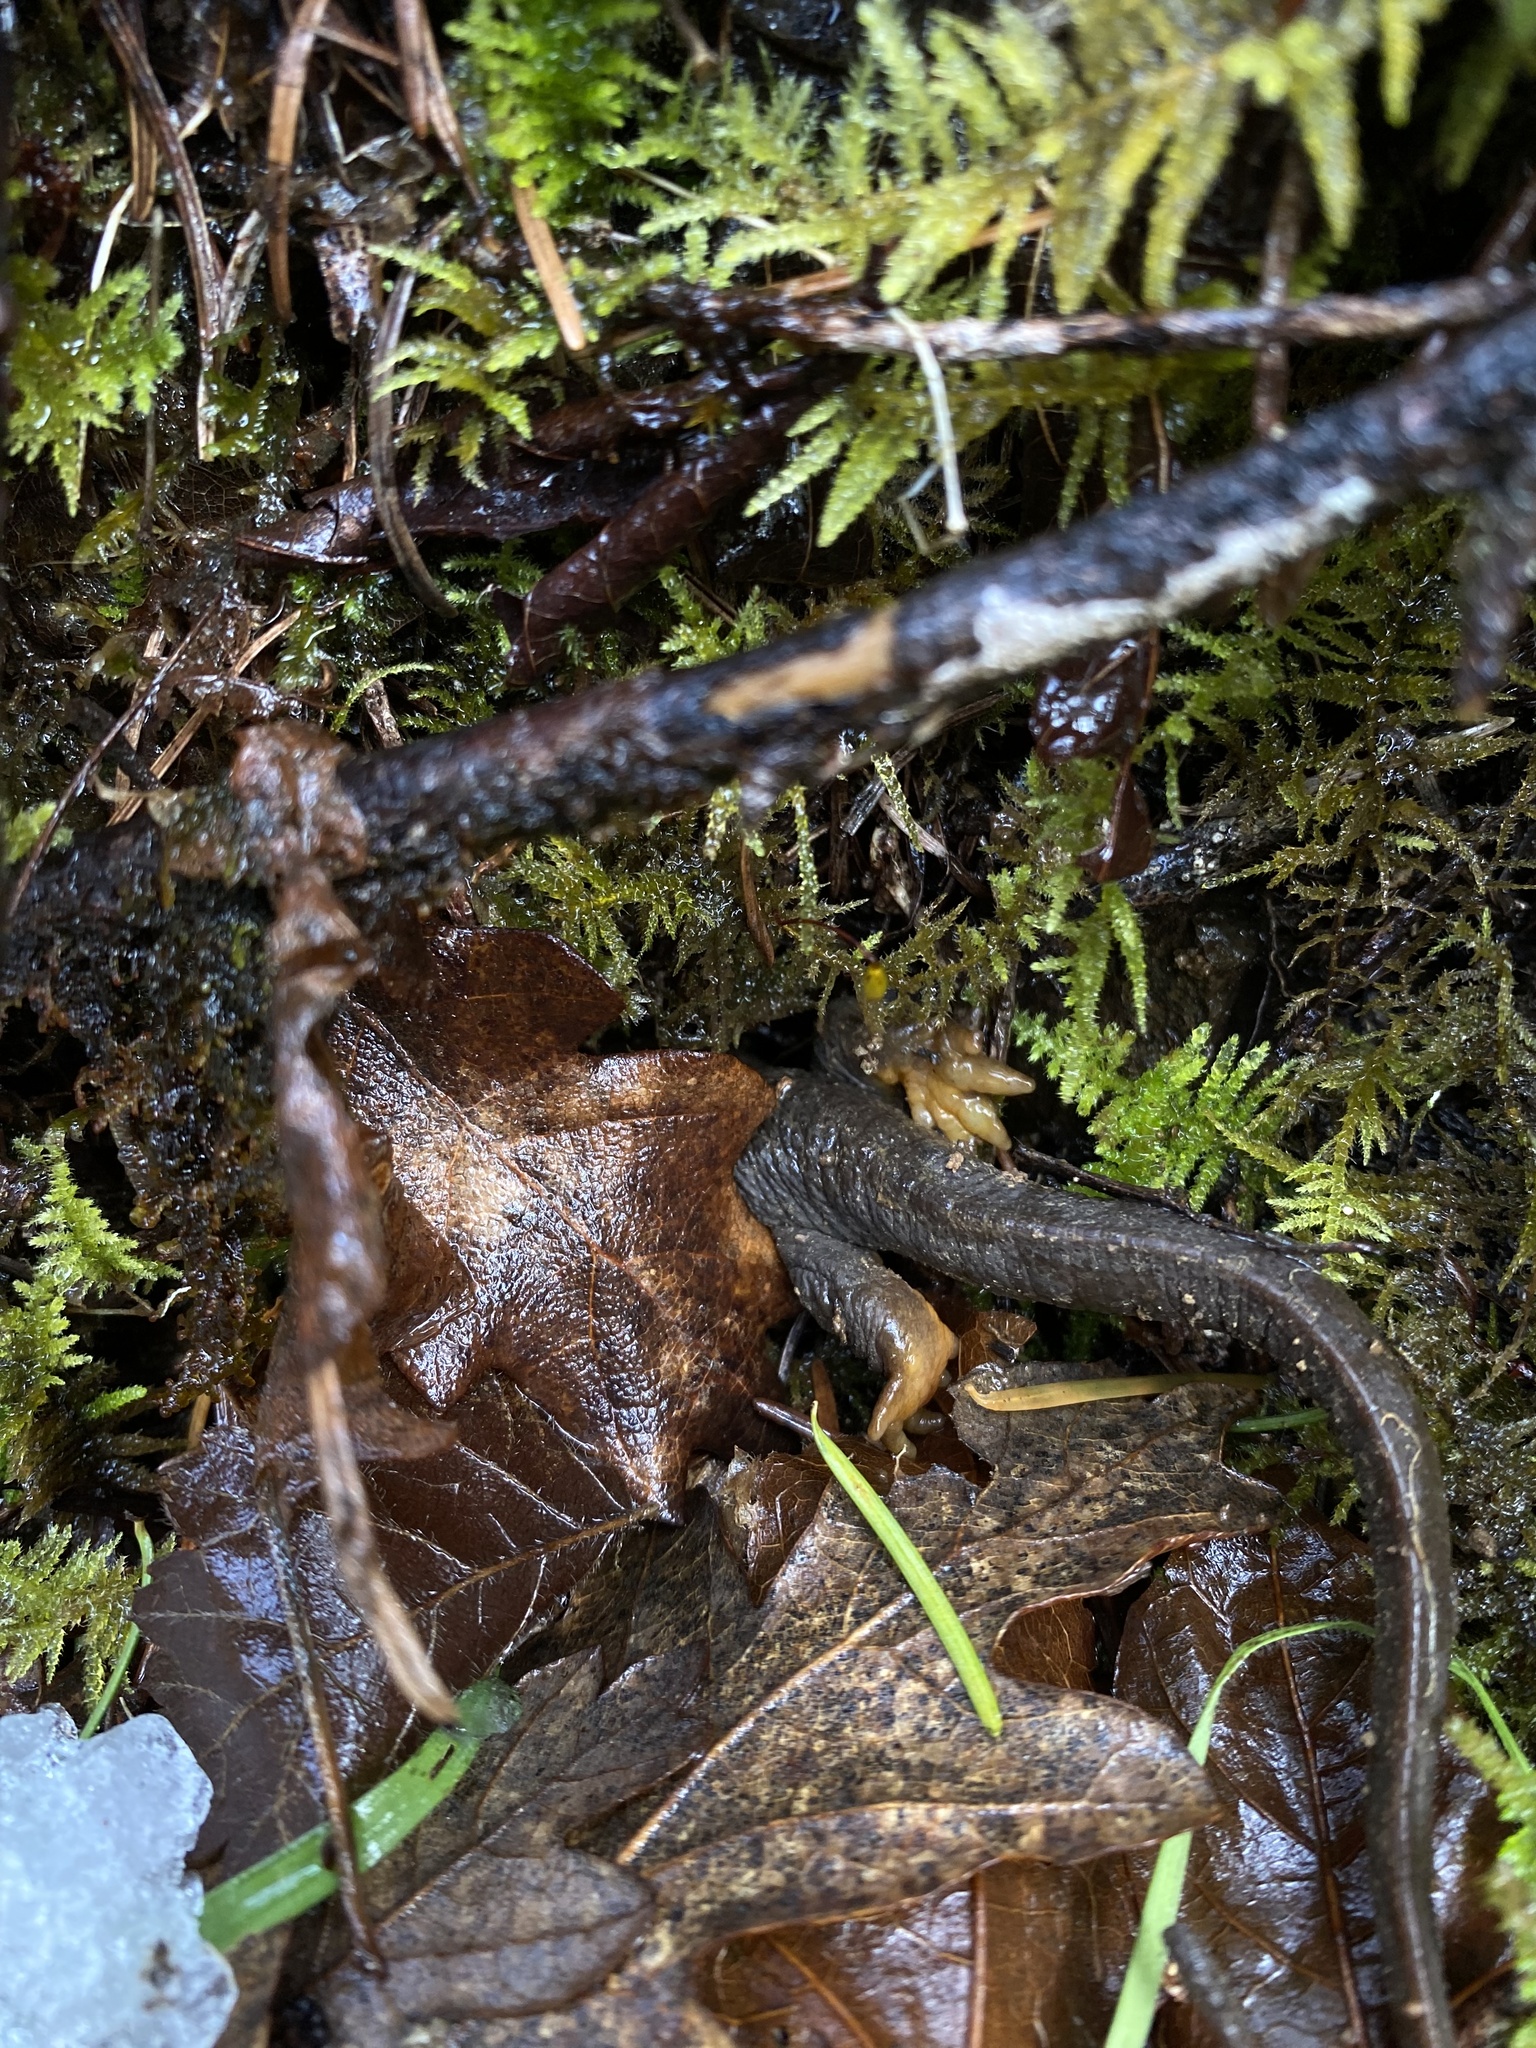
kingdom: Animalia
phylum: Chordata
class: Amphibia
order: Caudata
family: Salamandridae
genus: Taricha
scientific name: Taricha granulosa
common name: Roughskin newt
